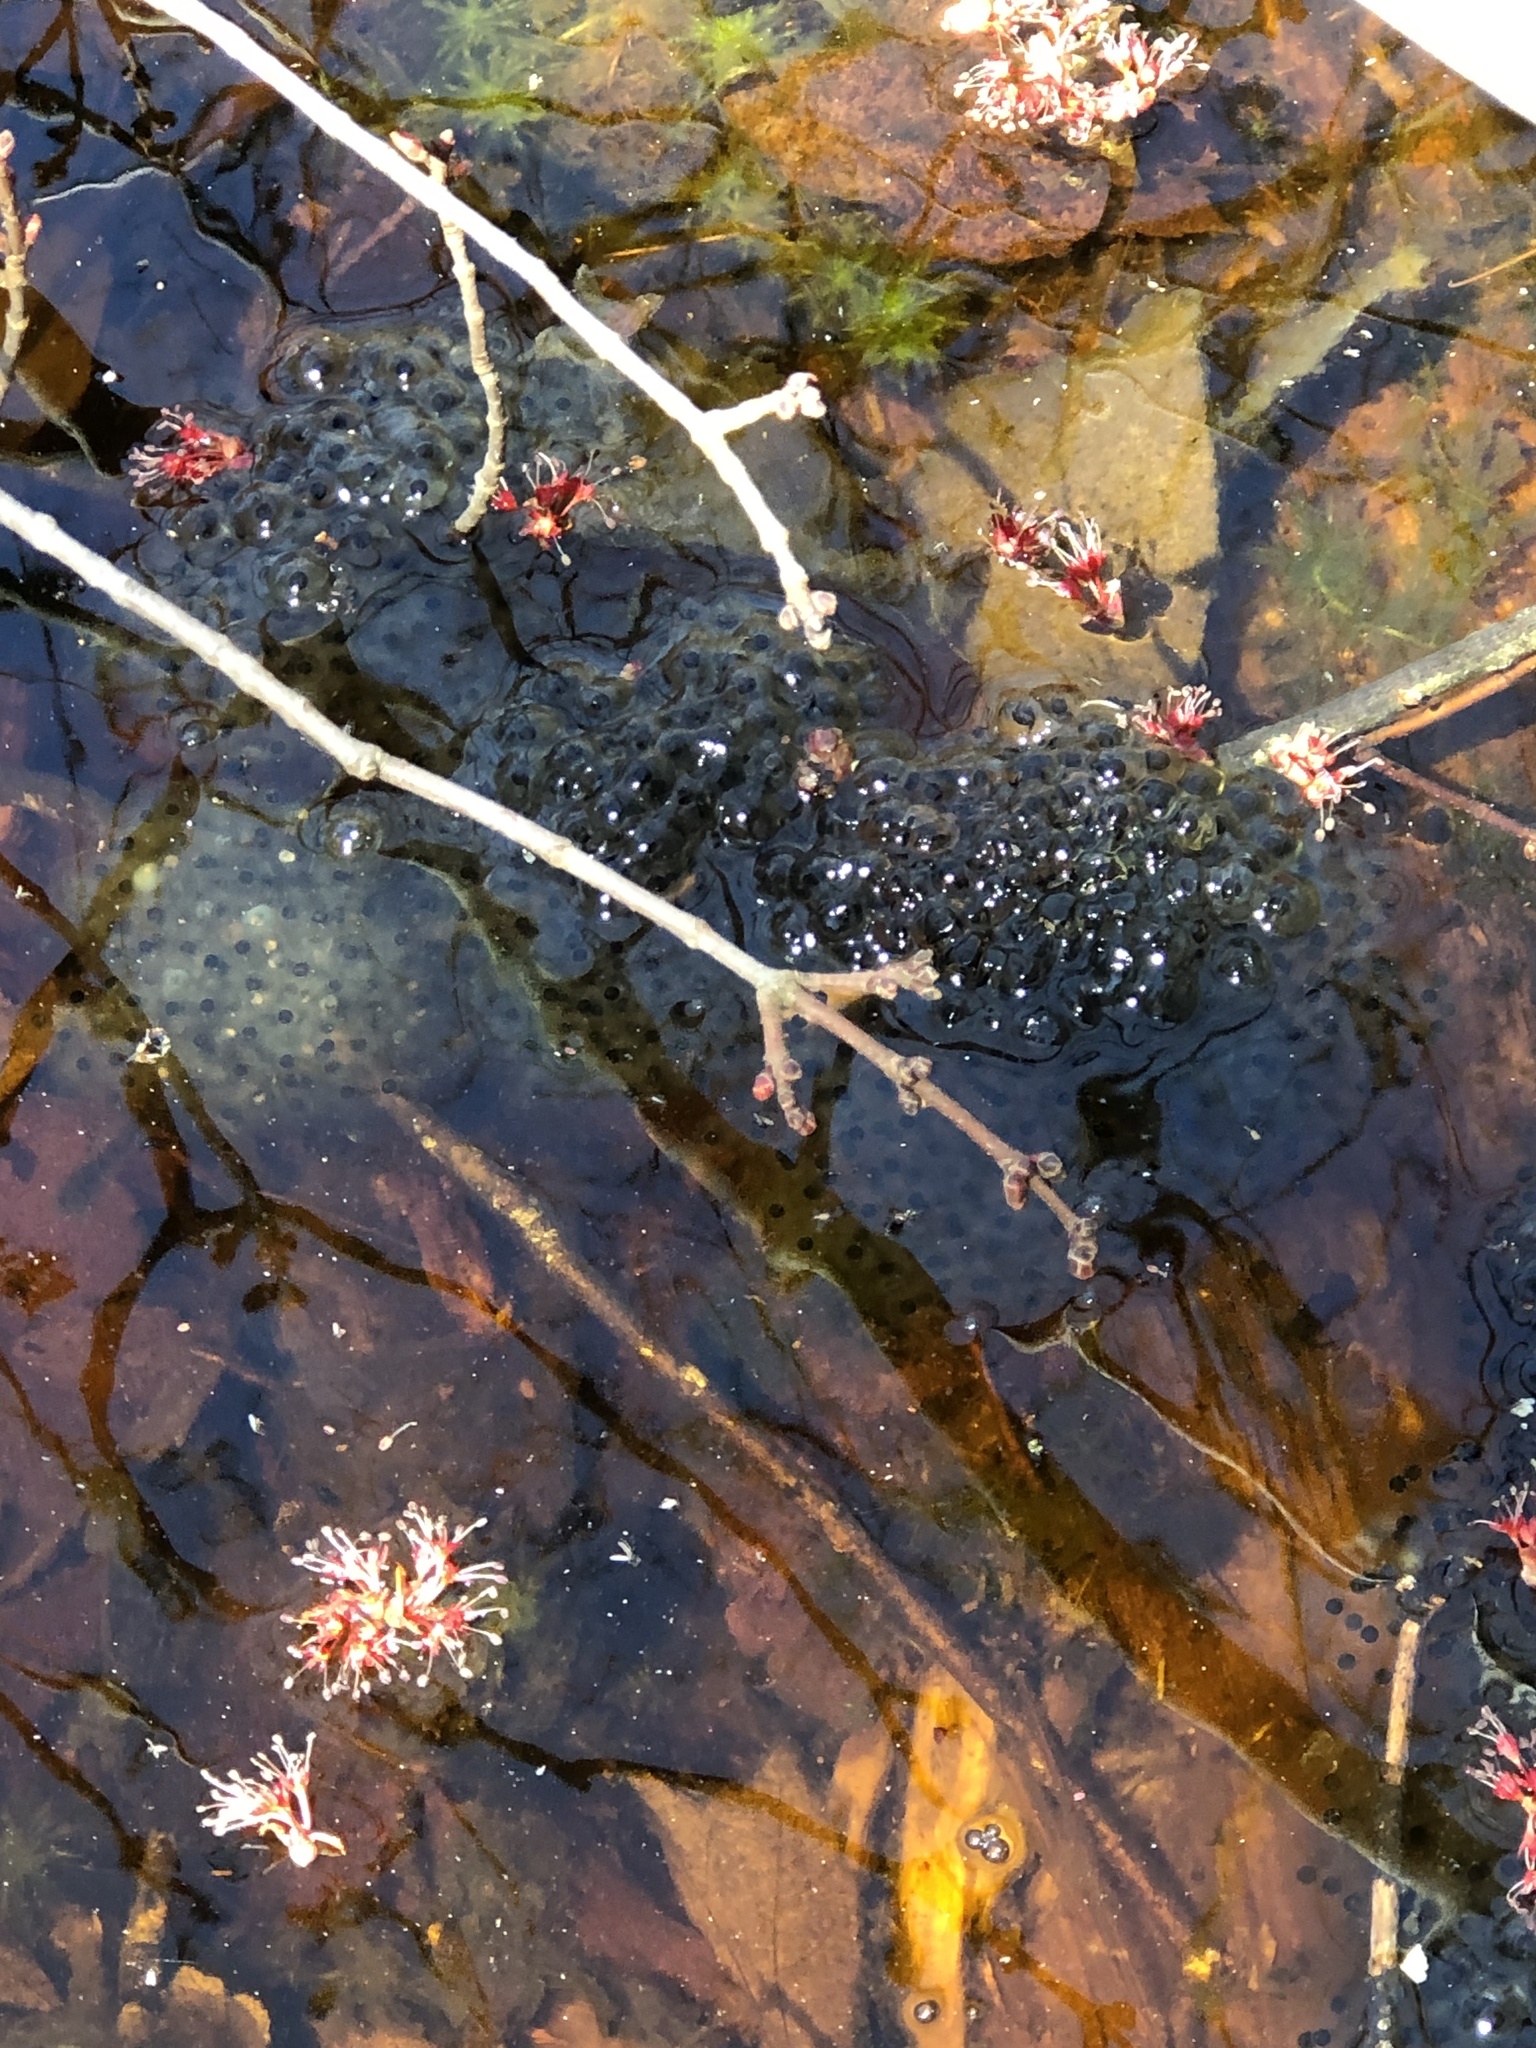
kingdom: Animalia
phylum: Chordata
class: Amphibia
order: Anura
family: Ranidae
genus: Lithobates
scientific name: Lithobates sylvaticus
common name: Wood frog
